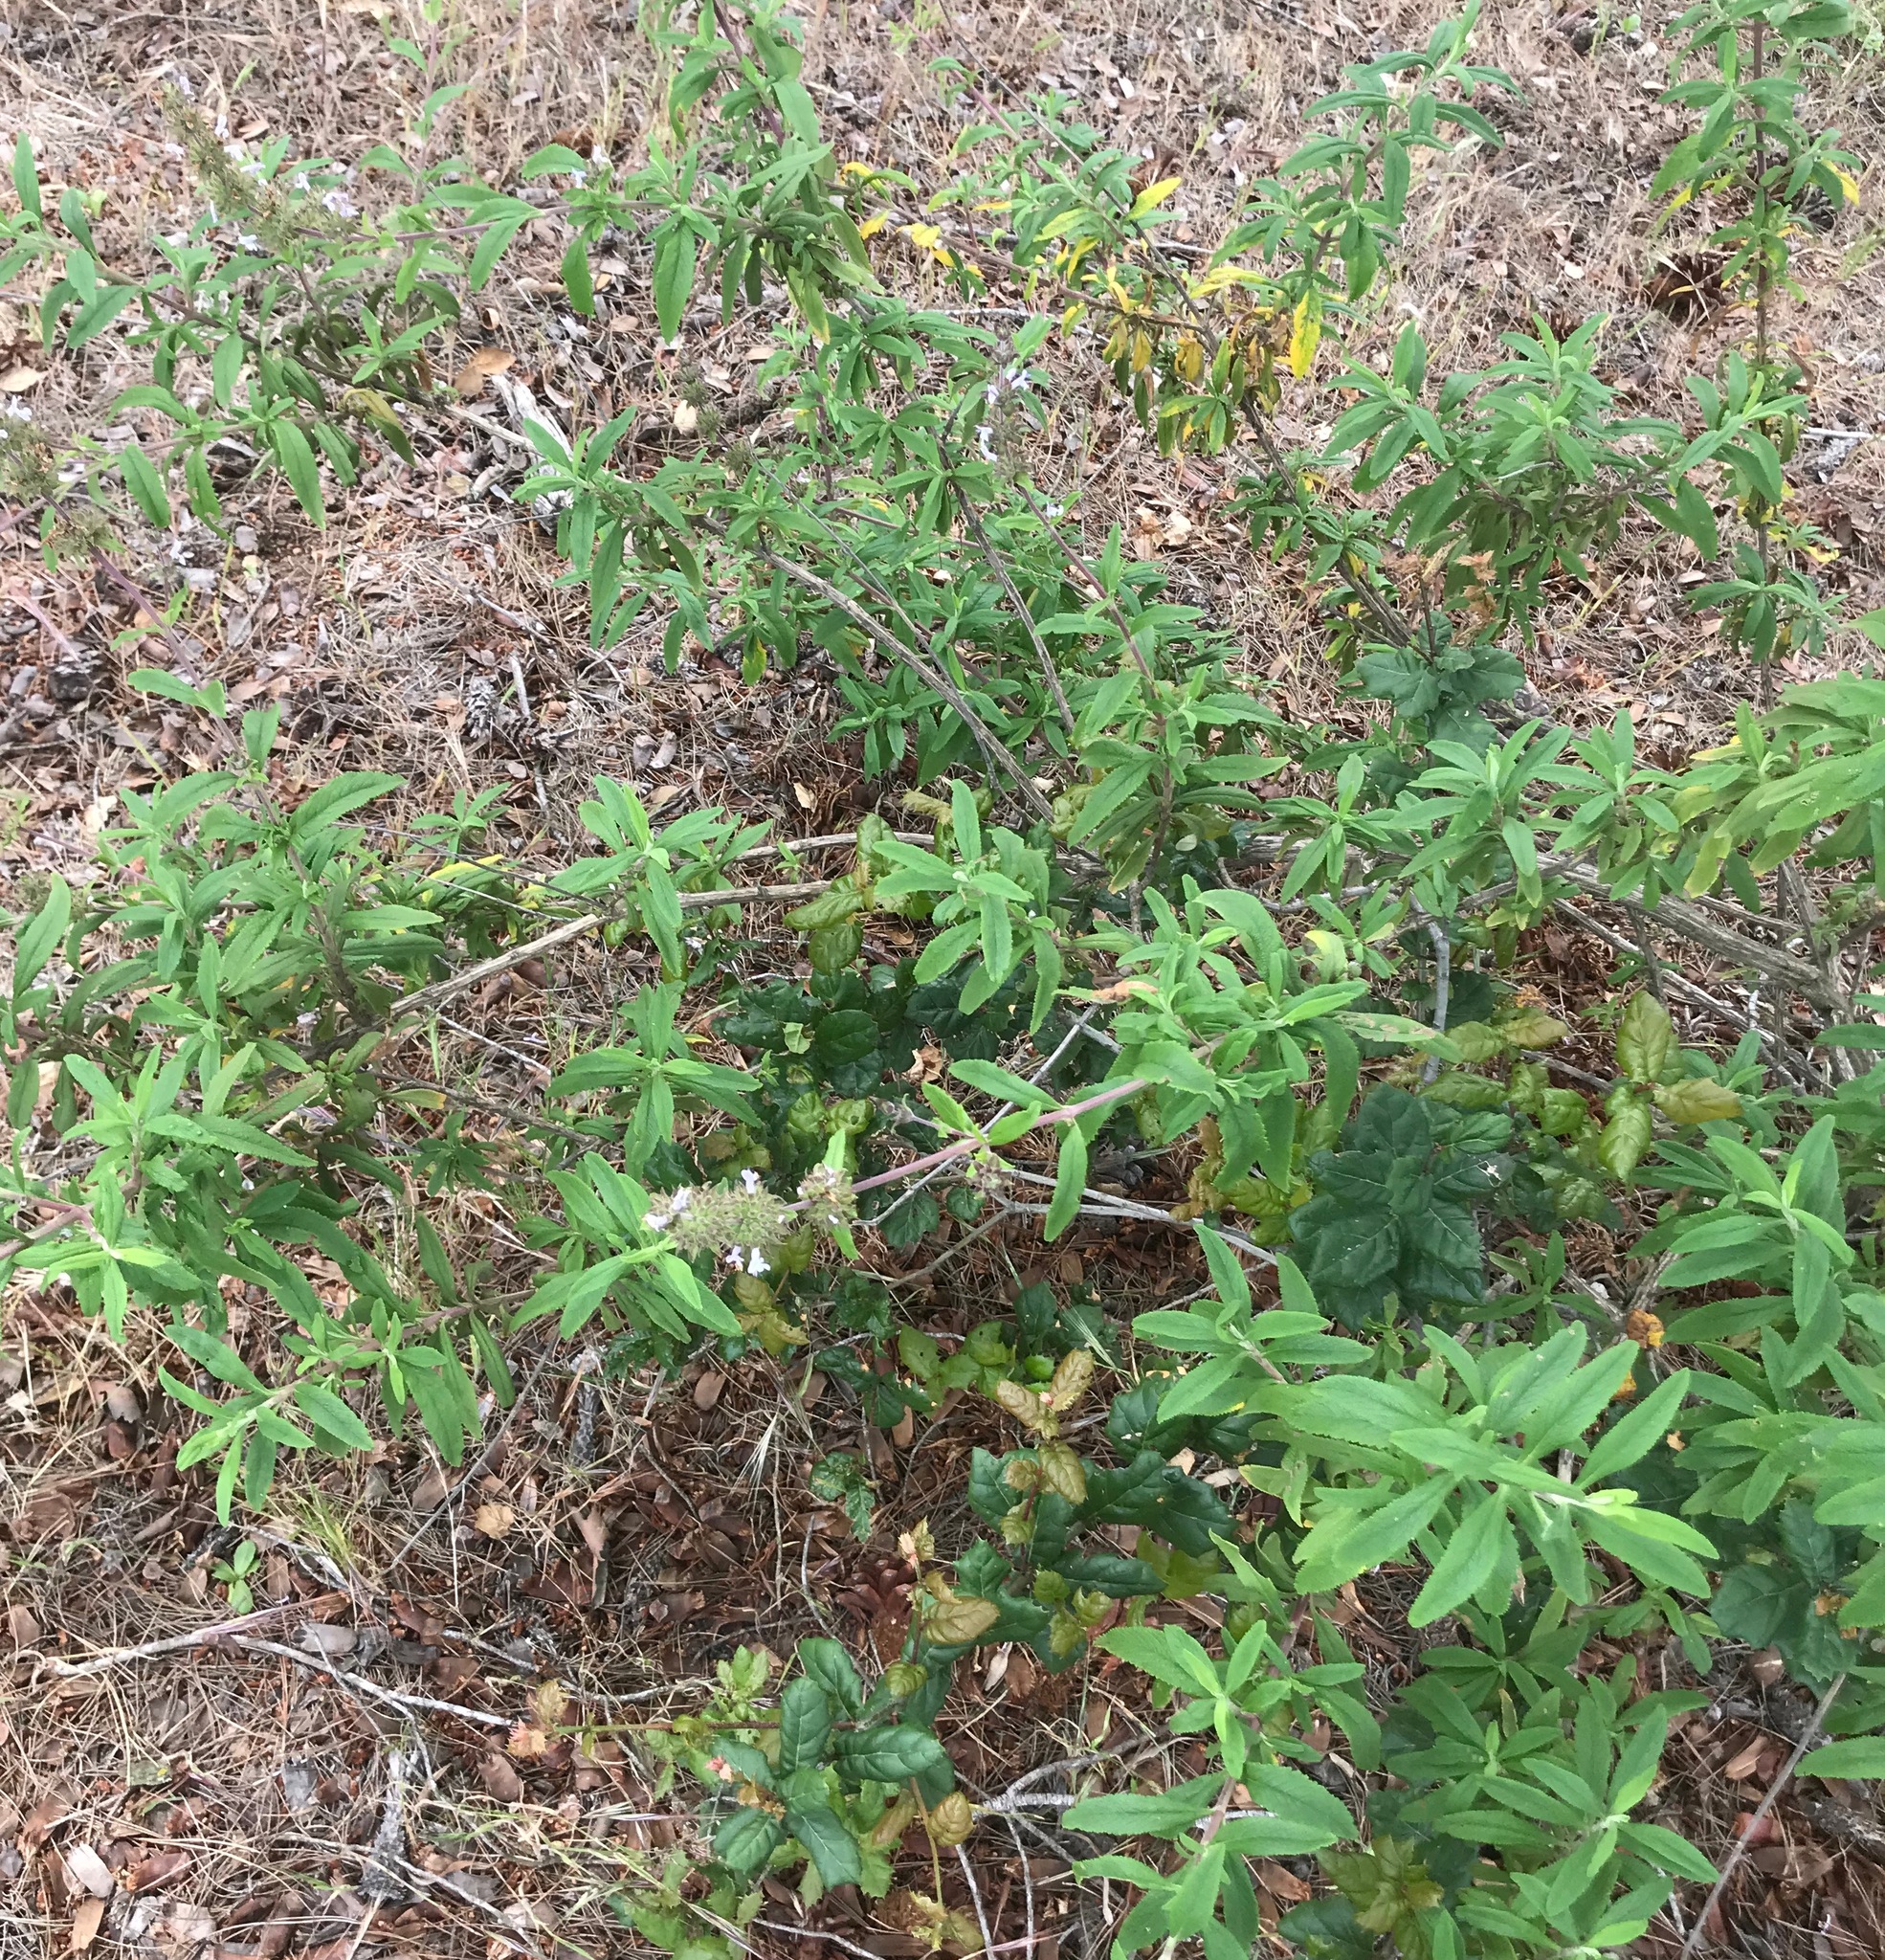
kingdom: Plantae
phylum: Tracheophyta
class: Magnoliopsida
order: Lamiales
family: Lamiaceae
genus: Salvia
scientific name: Salvia mellifera
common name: Black sage
